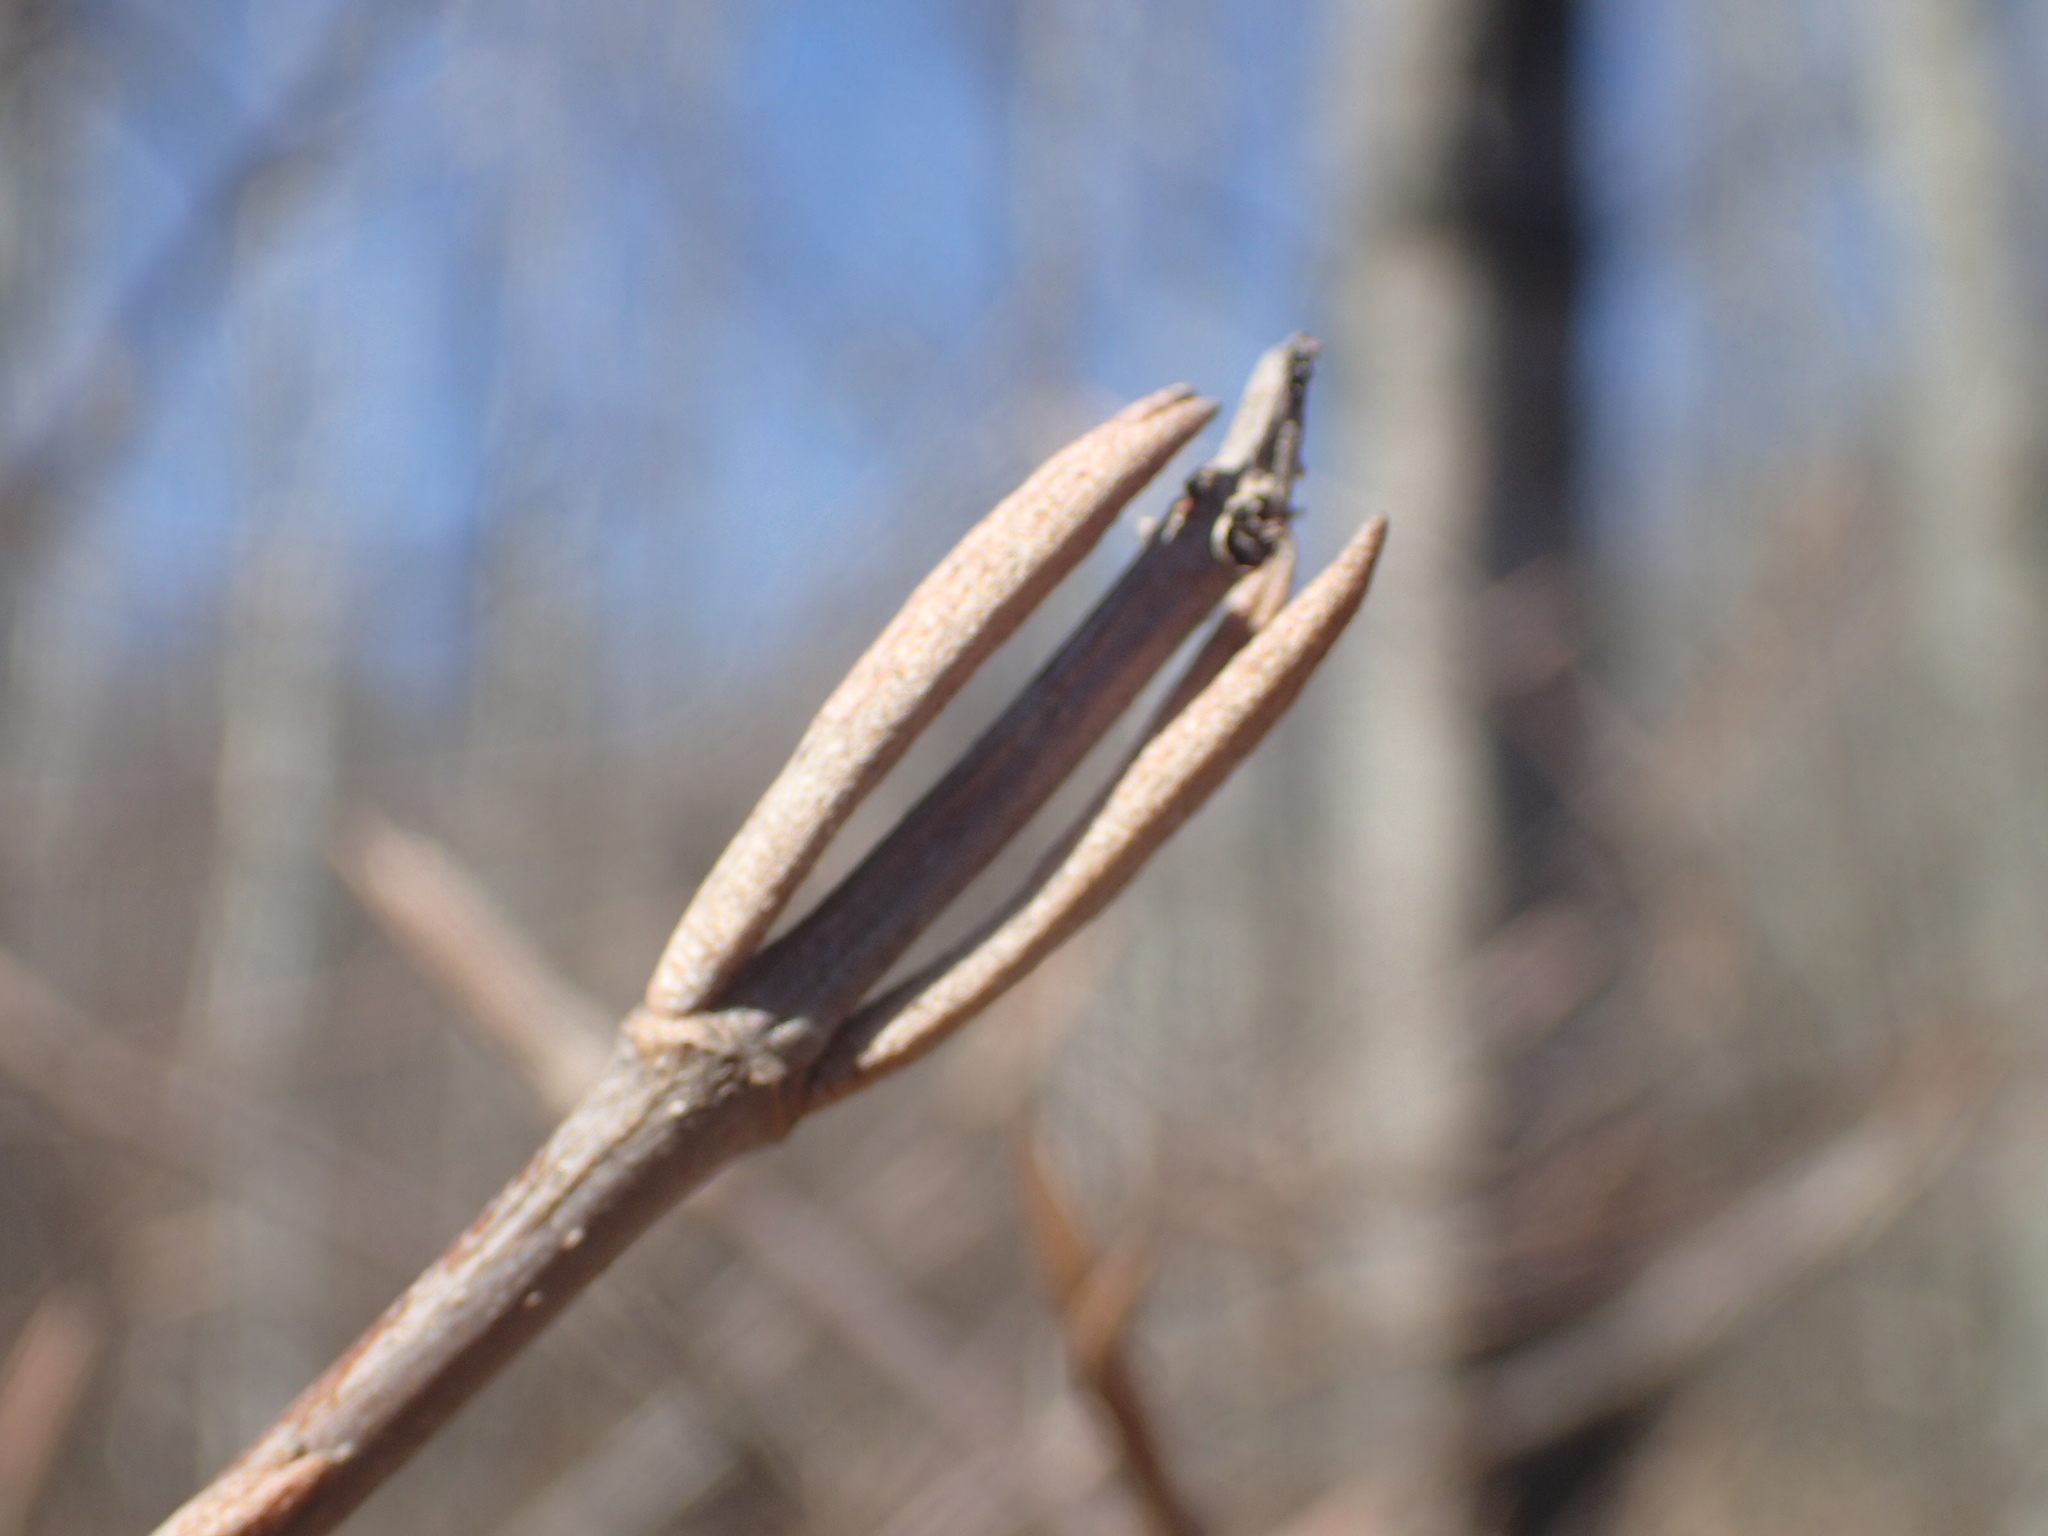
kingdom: Plantae
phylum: Tracheophyta
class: Magnoliopsida
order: Dipsacales
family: Viburnaceae
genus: Viburnum
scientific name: Viburnum cassinoides
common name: Swamp haw
